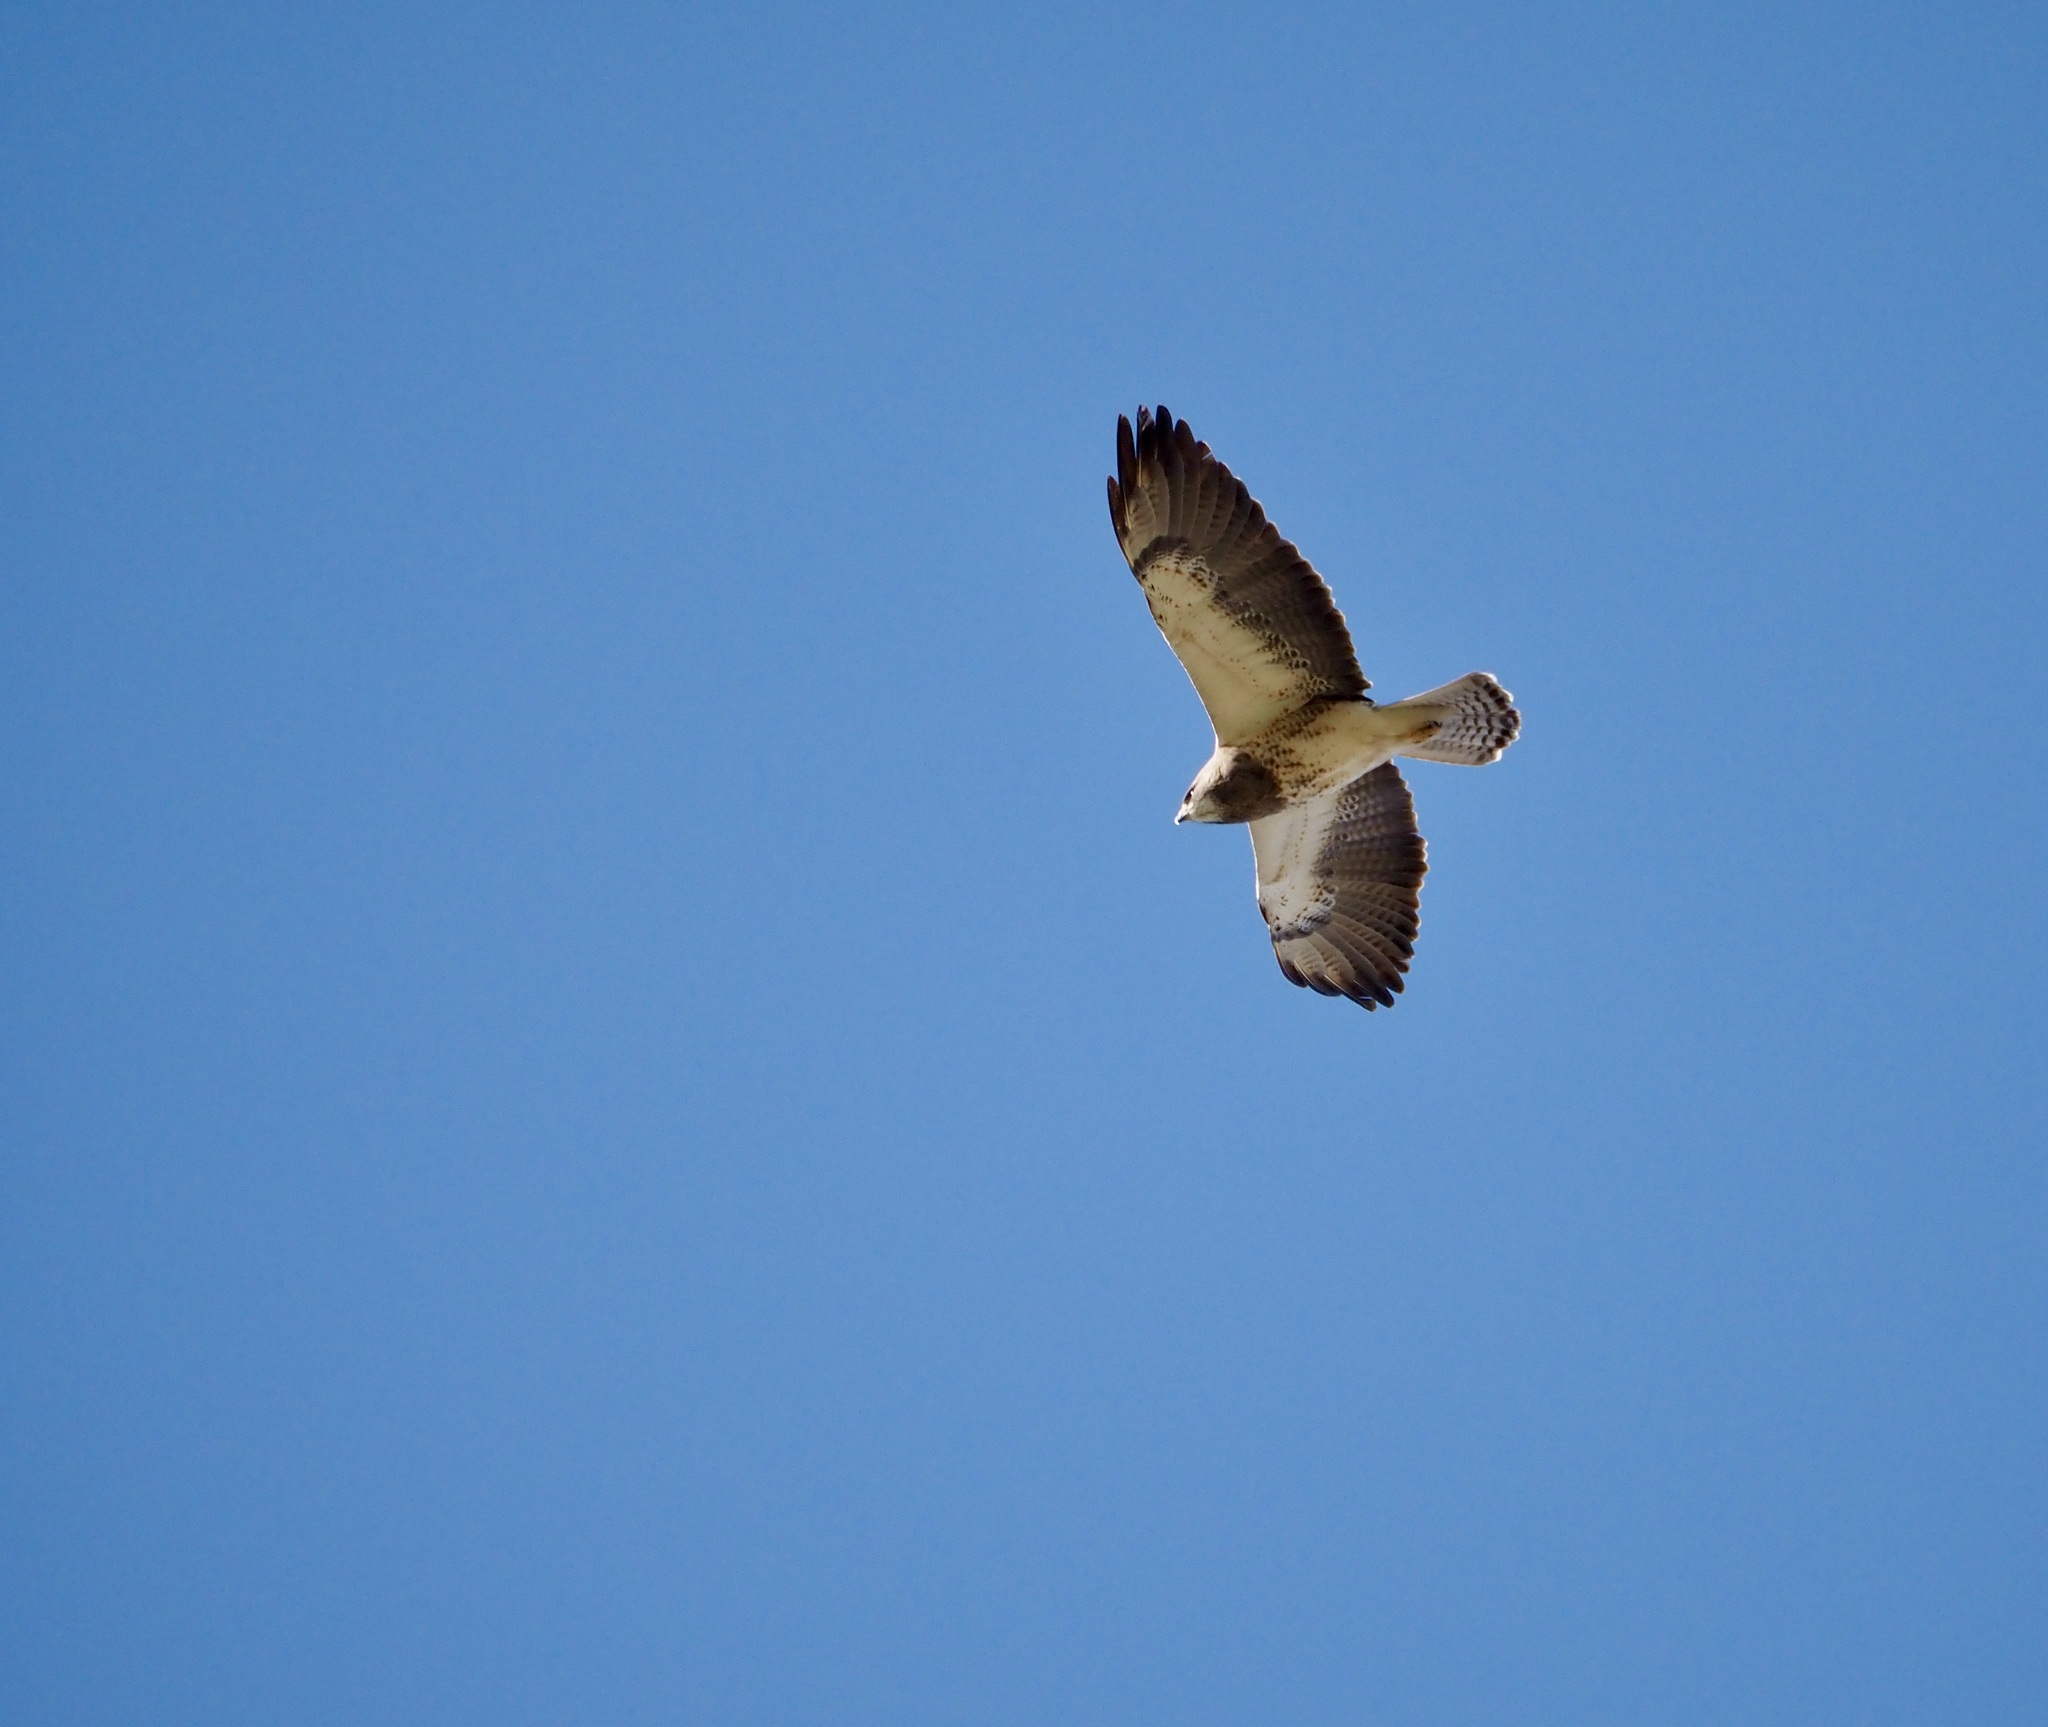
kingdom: Animalia
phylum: Chordata
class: Aves
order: Accipitriformes
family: Accipitridae
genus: Buteo
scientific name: Buteo swainsoni
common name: Swainson's hawk
